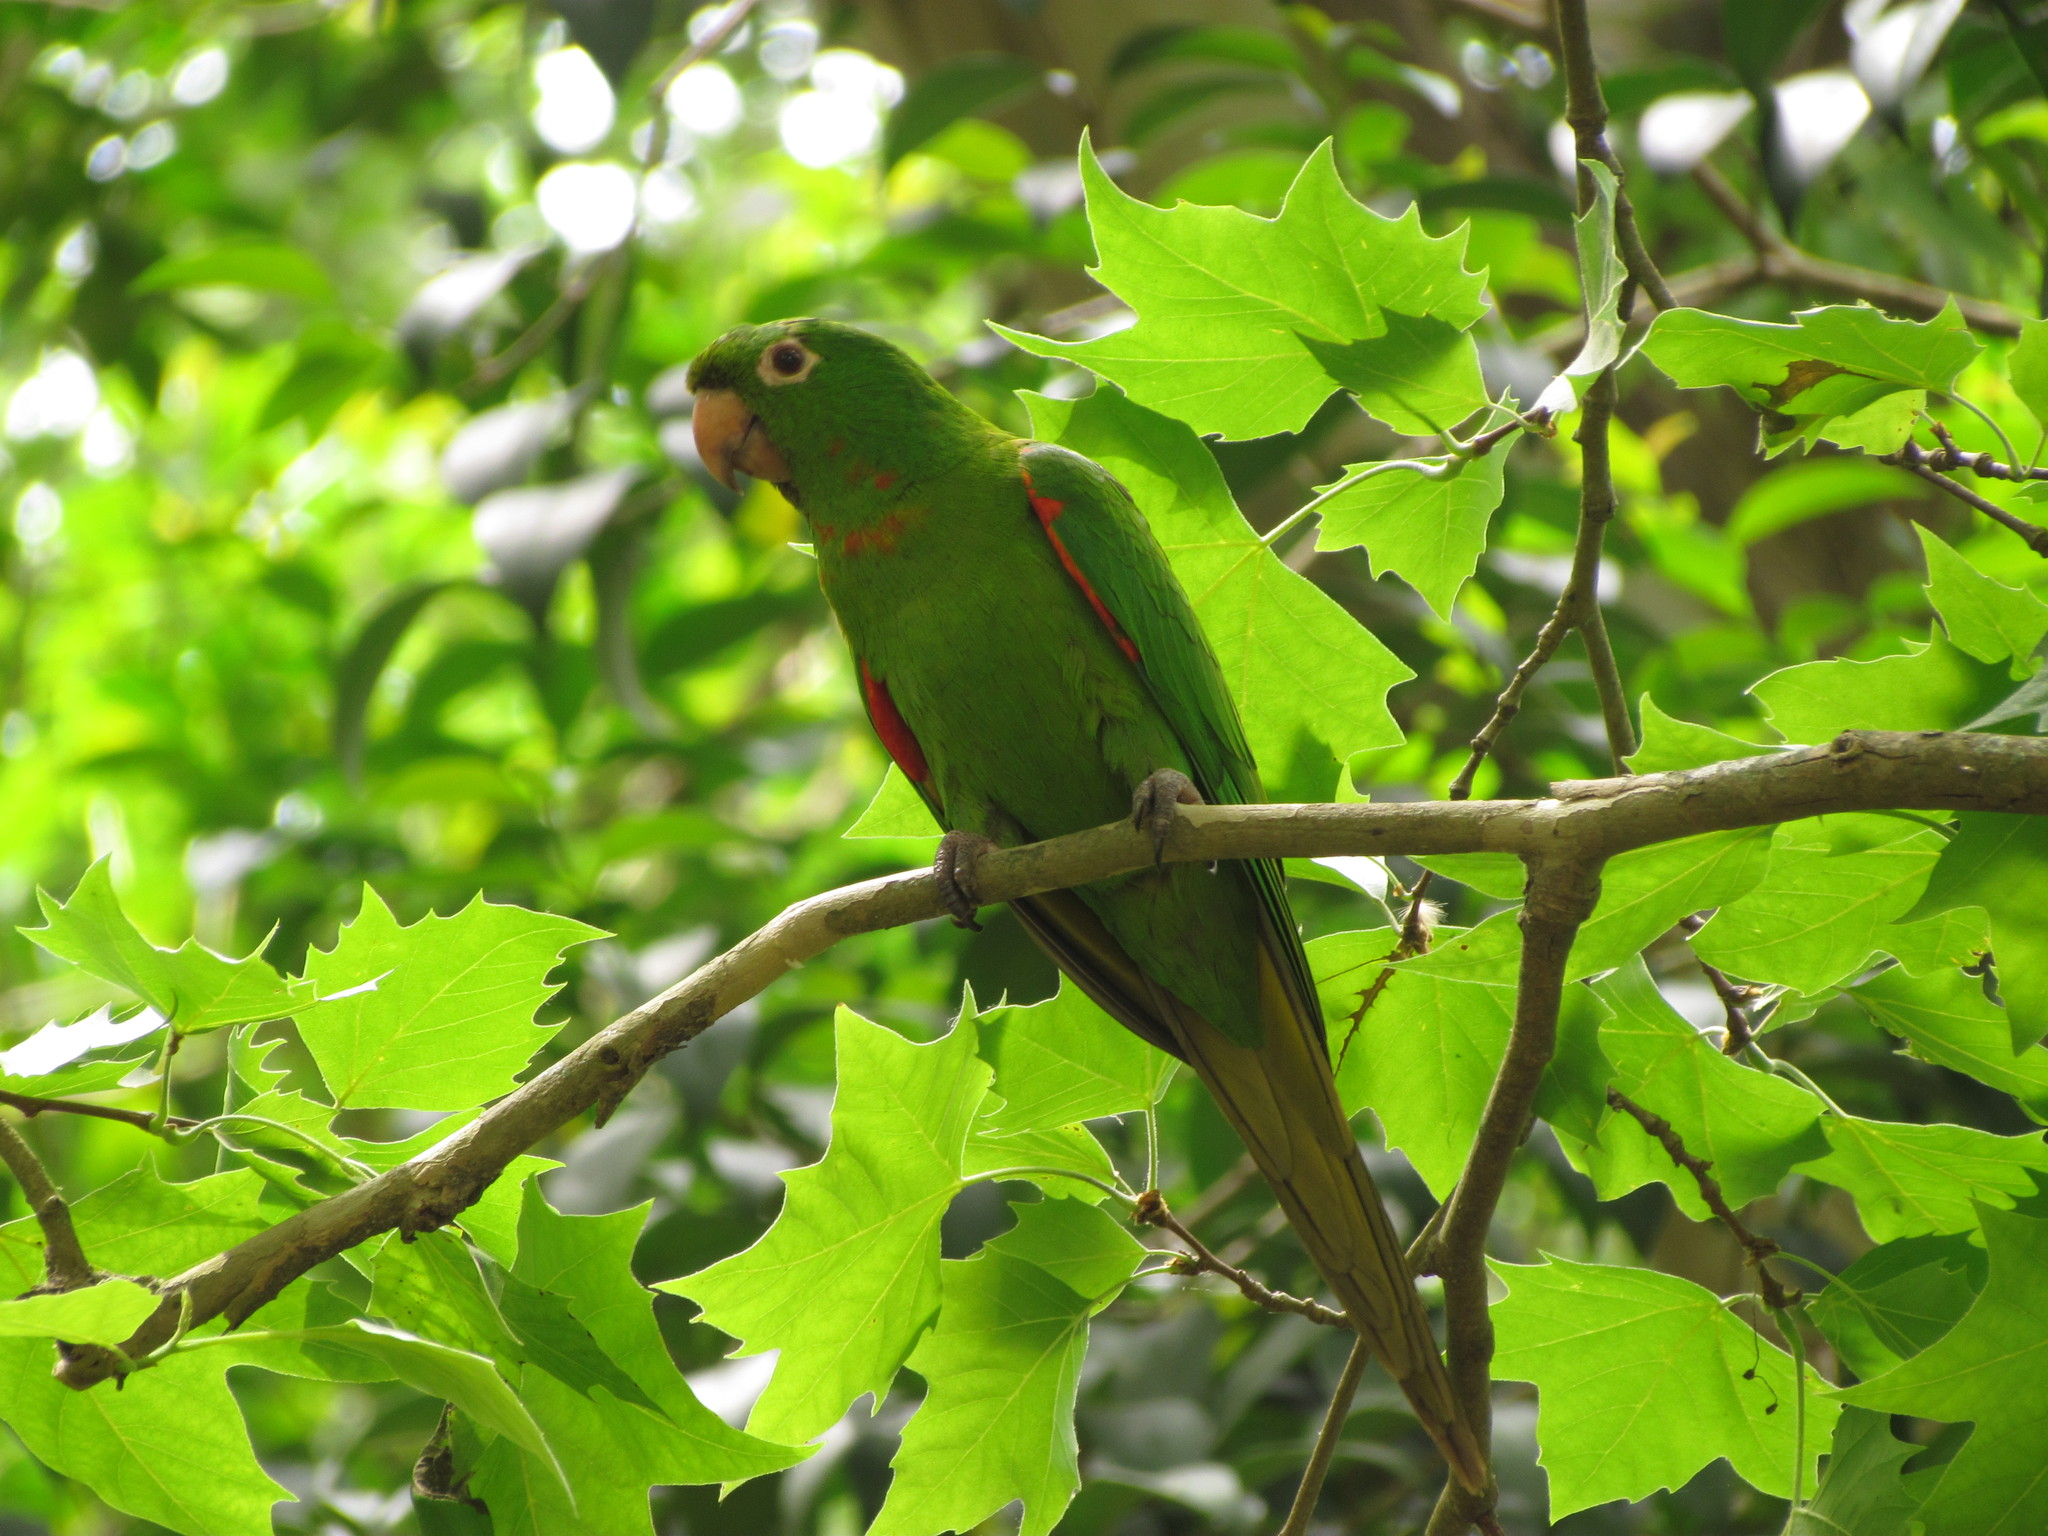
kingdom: Animalia
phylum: Chordata
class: Aves
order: Psittaciformes
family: Psittacidae
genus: Aratinga
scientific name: Aratinga leucophthalma
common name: White-eyed parakeet
